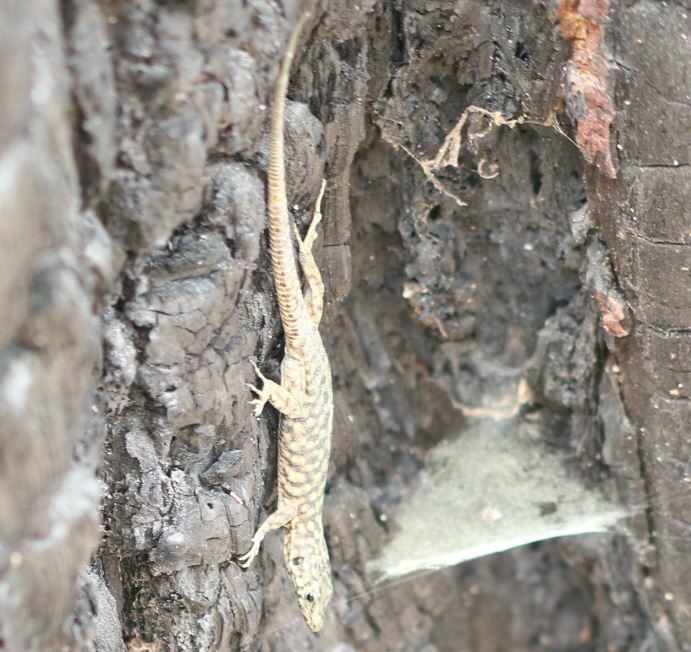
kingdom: Animalia
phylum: Chordata
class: Squamata
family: Lacertidae
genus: Archaeolacerta
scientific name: Archaeolacerta bedriagae
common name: Bedriaga's rock lizard
